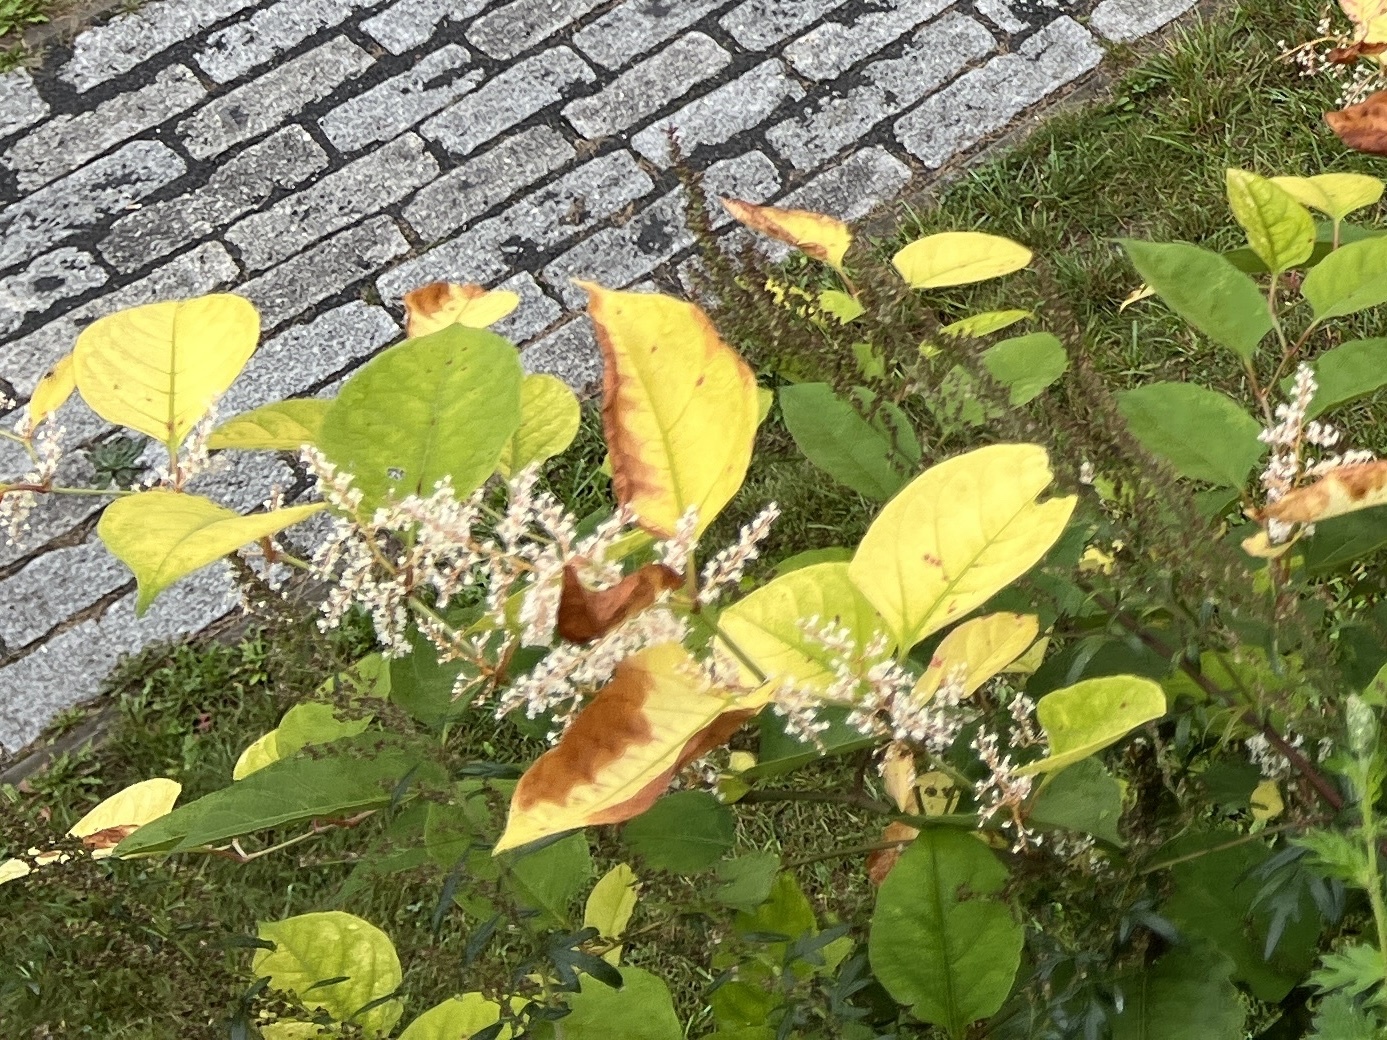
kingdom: Plantae
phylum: Tracheophyta
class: Magnoliopsida
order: Caryophyllales
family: Polygonaceae
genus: Reynoutria
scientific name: Reynoutria japonica
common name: Japanese knotweed
